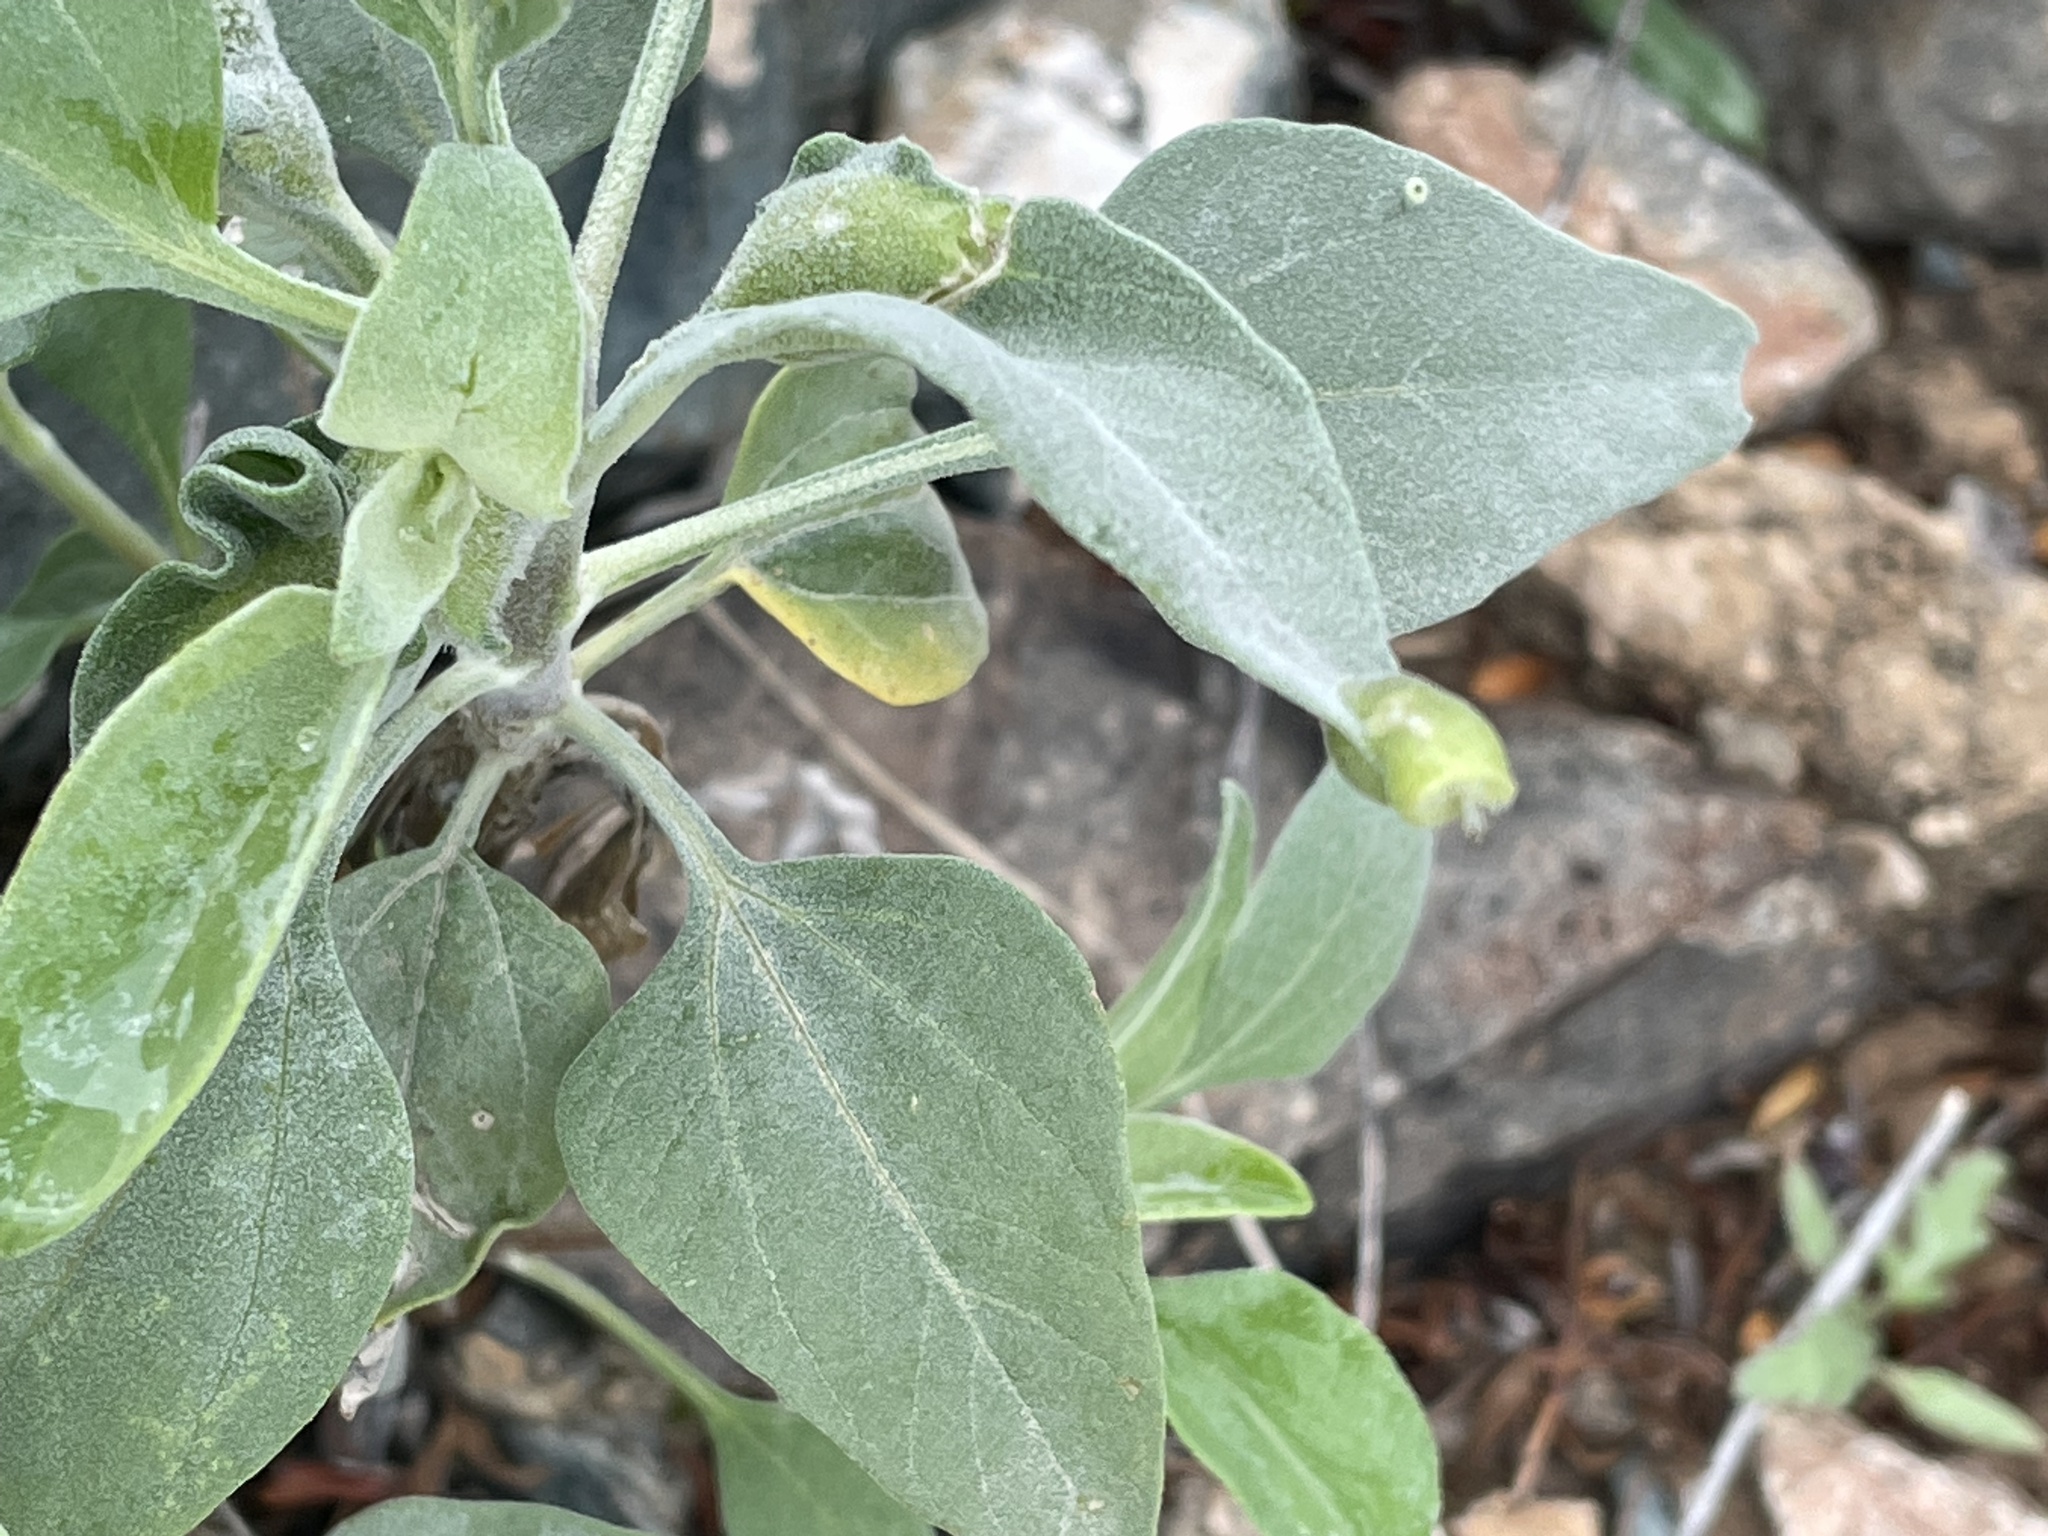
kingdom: Plantae
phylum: Tracheophyta
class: Magnoliopsida
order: Asterales
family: Asteraceae
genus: Encelia
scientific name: Encelia farinosa
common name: Brittlebush
